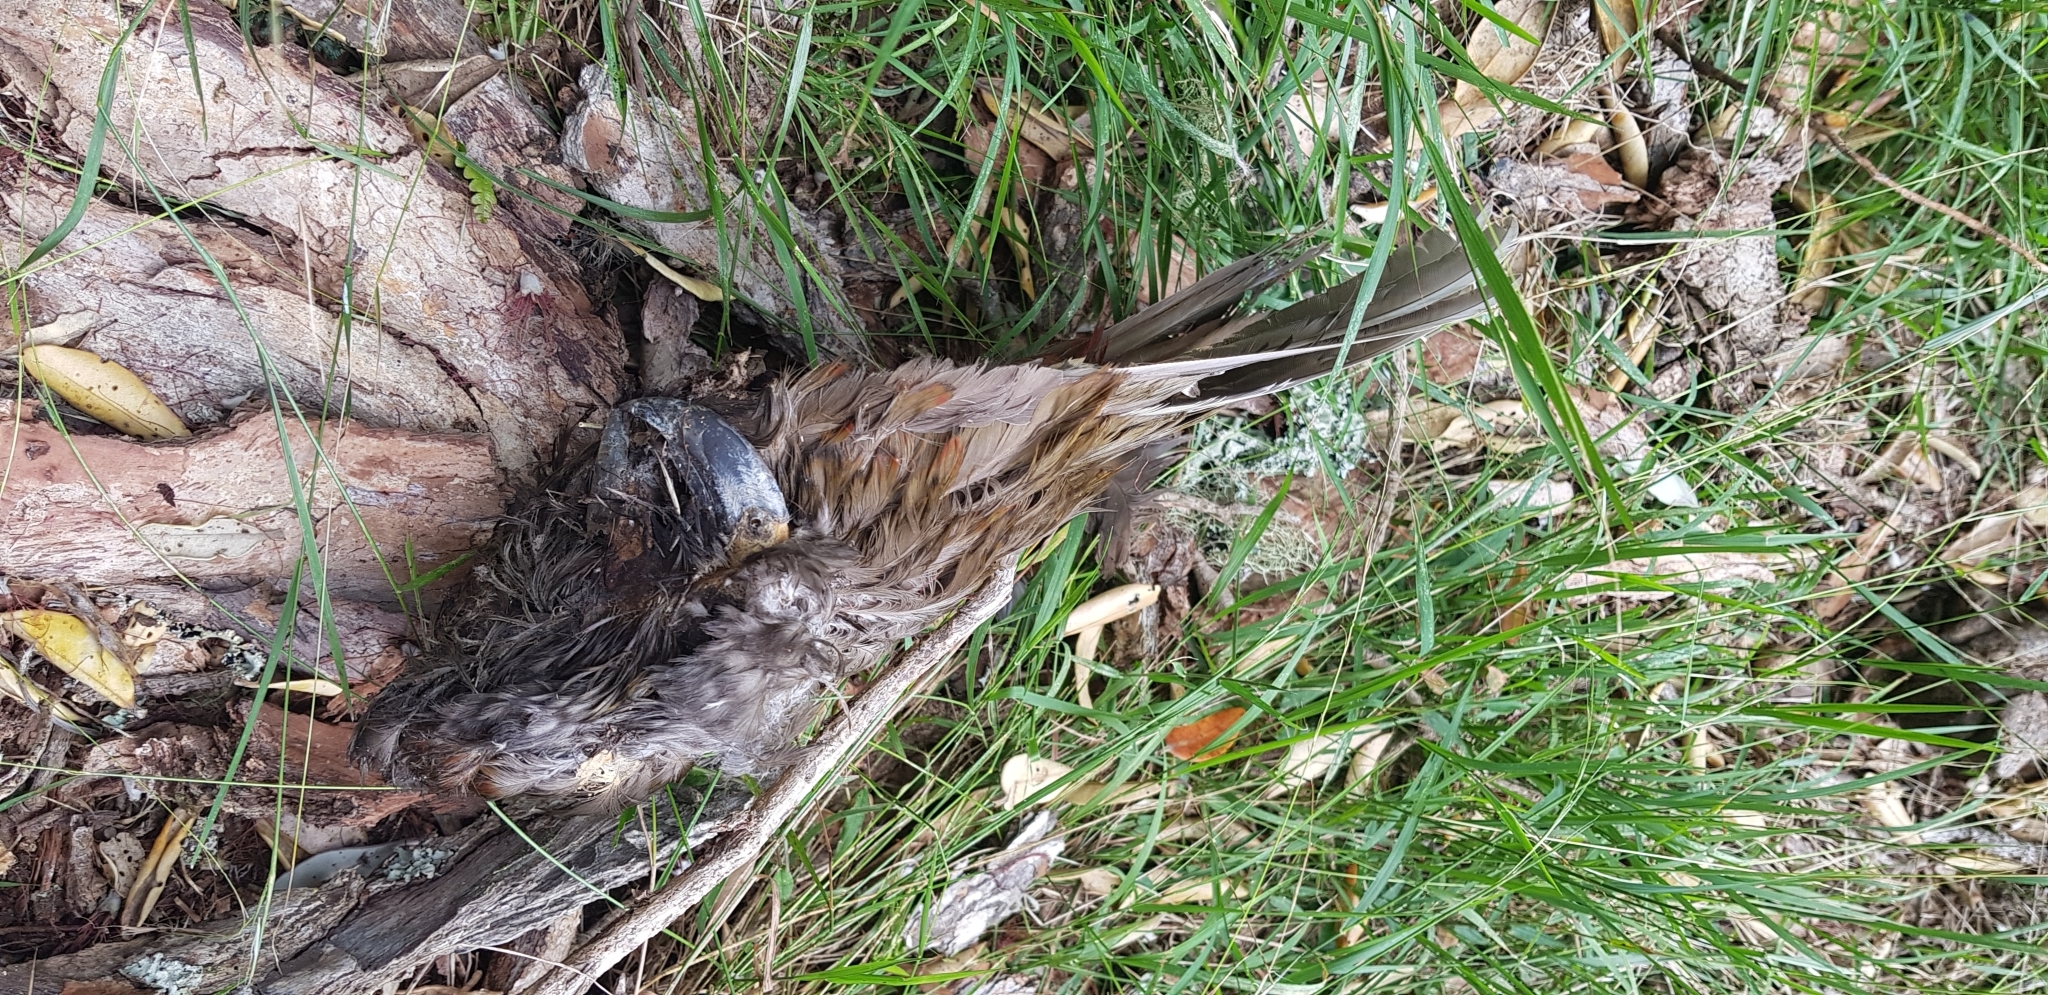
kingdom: Animalia
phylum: Chordata
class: Aves
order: Psittaciformes
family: Psittacidae
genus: Nestor
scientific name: Nestor meridionalis
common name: New zealand kaka
